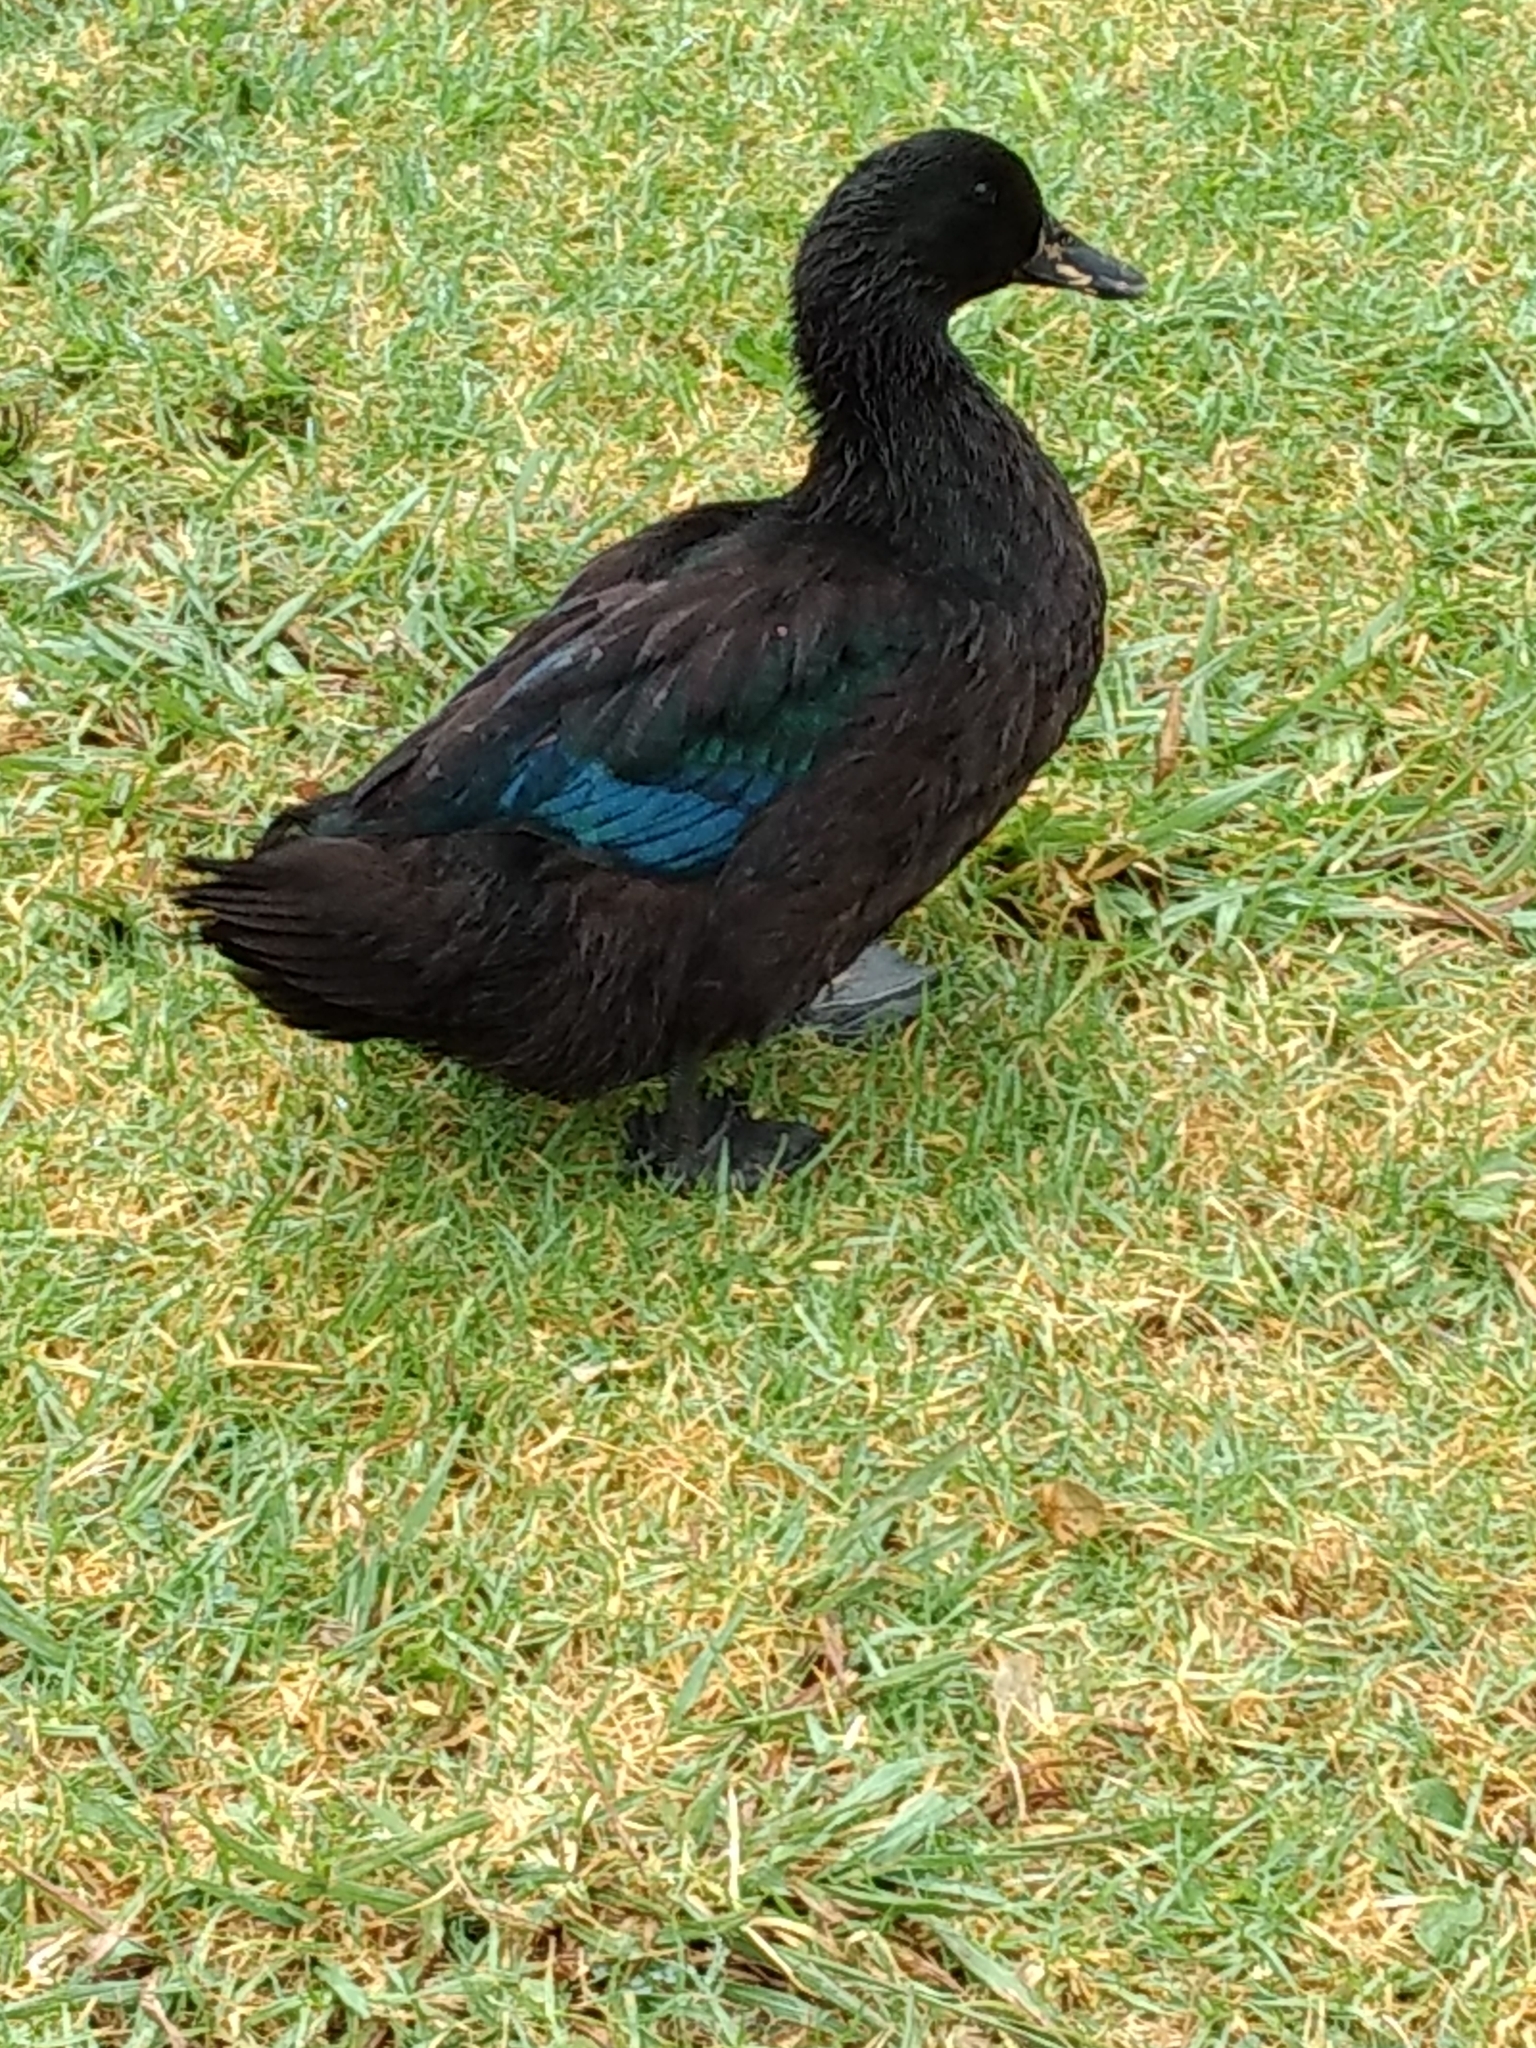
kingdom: Animalia
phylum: Chordata
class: Aves
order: Anseriformes
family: Anatidae
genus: Anas
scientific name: Anas platyrhynchos
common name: Mallard
